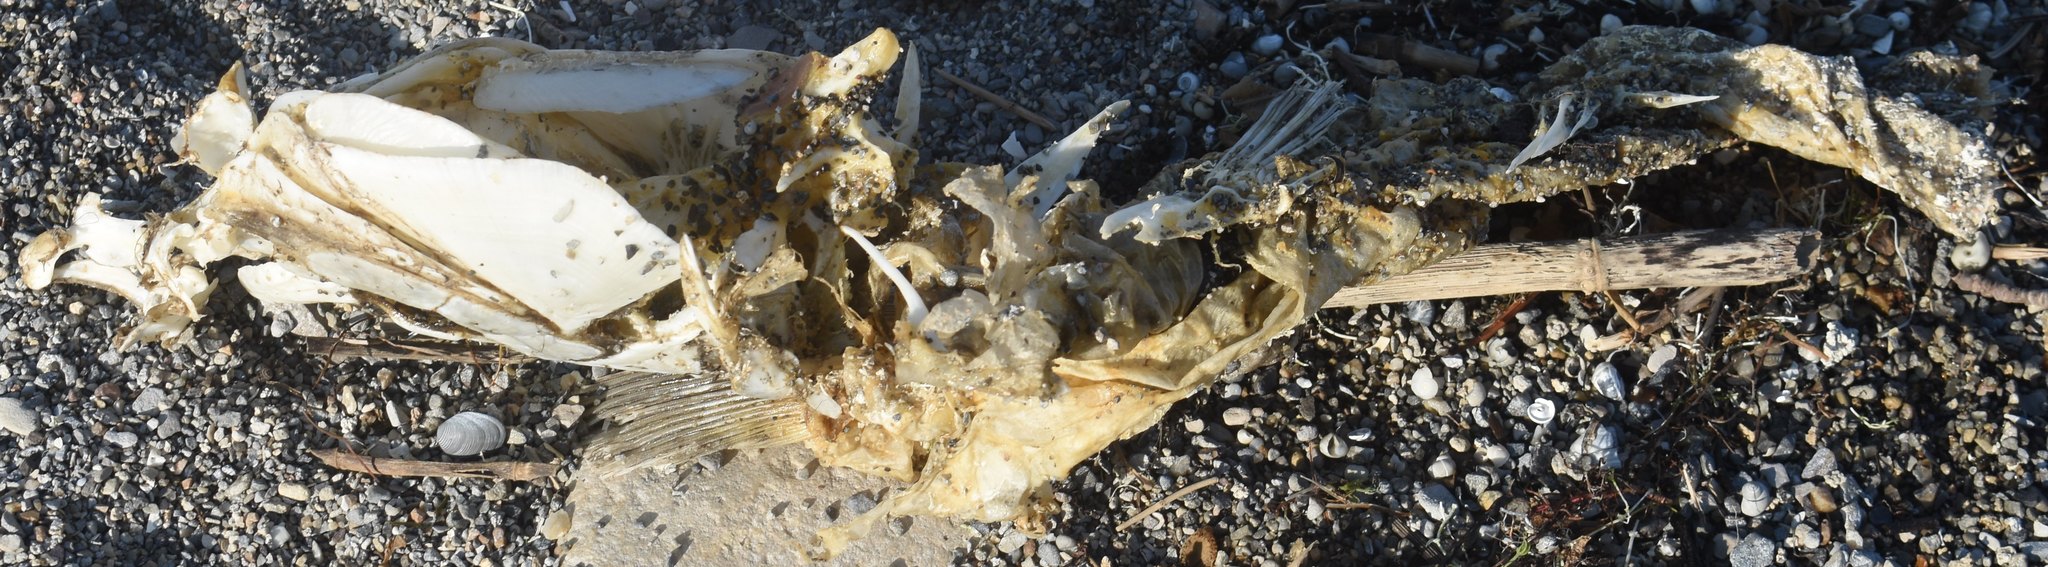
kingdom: Animalia
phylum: Chordata
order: Cypriniformes
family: Cyprinidae
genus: Cyprinus
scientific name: Cyprinus carpio
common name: Common carp
